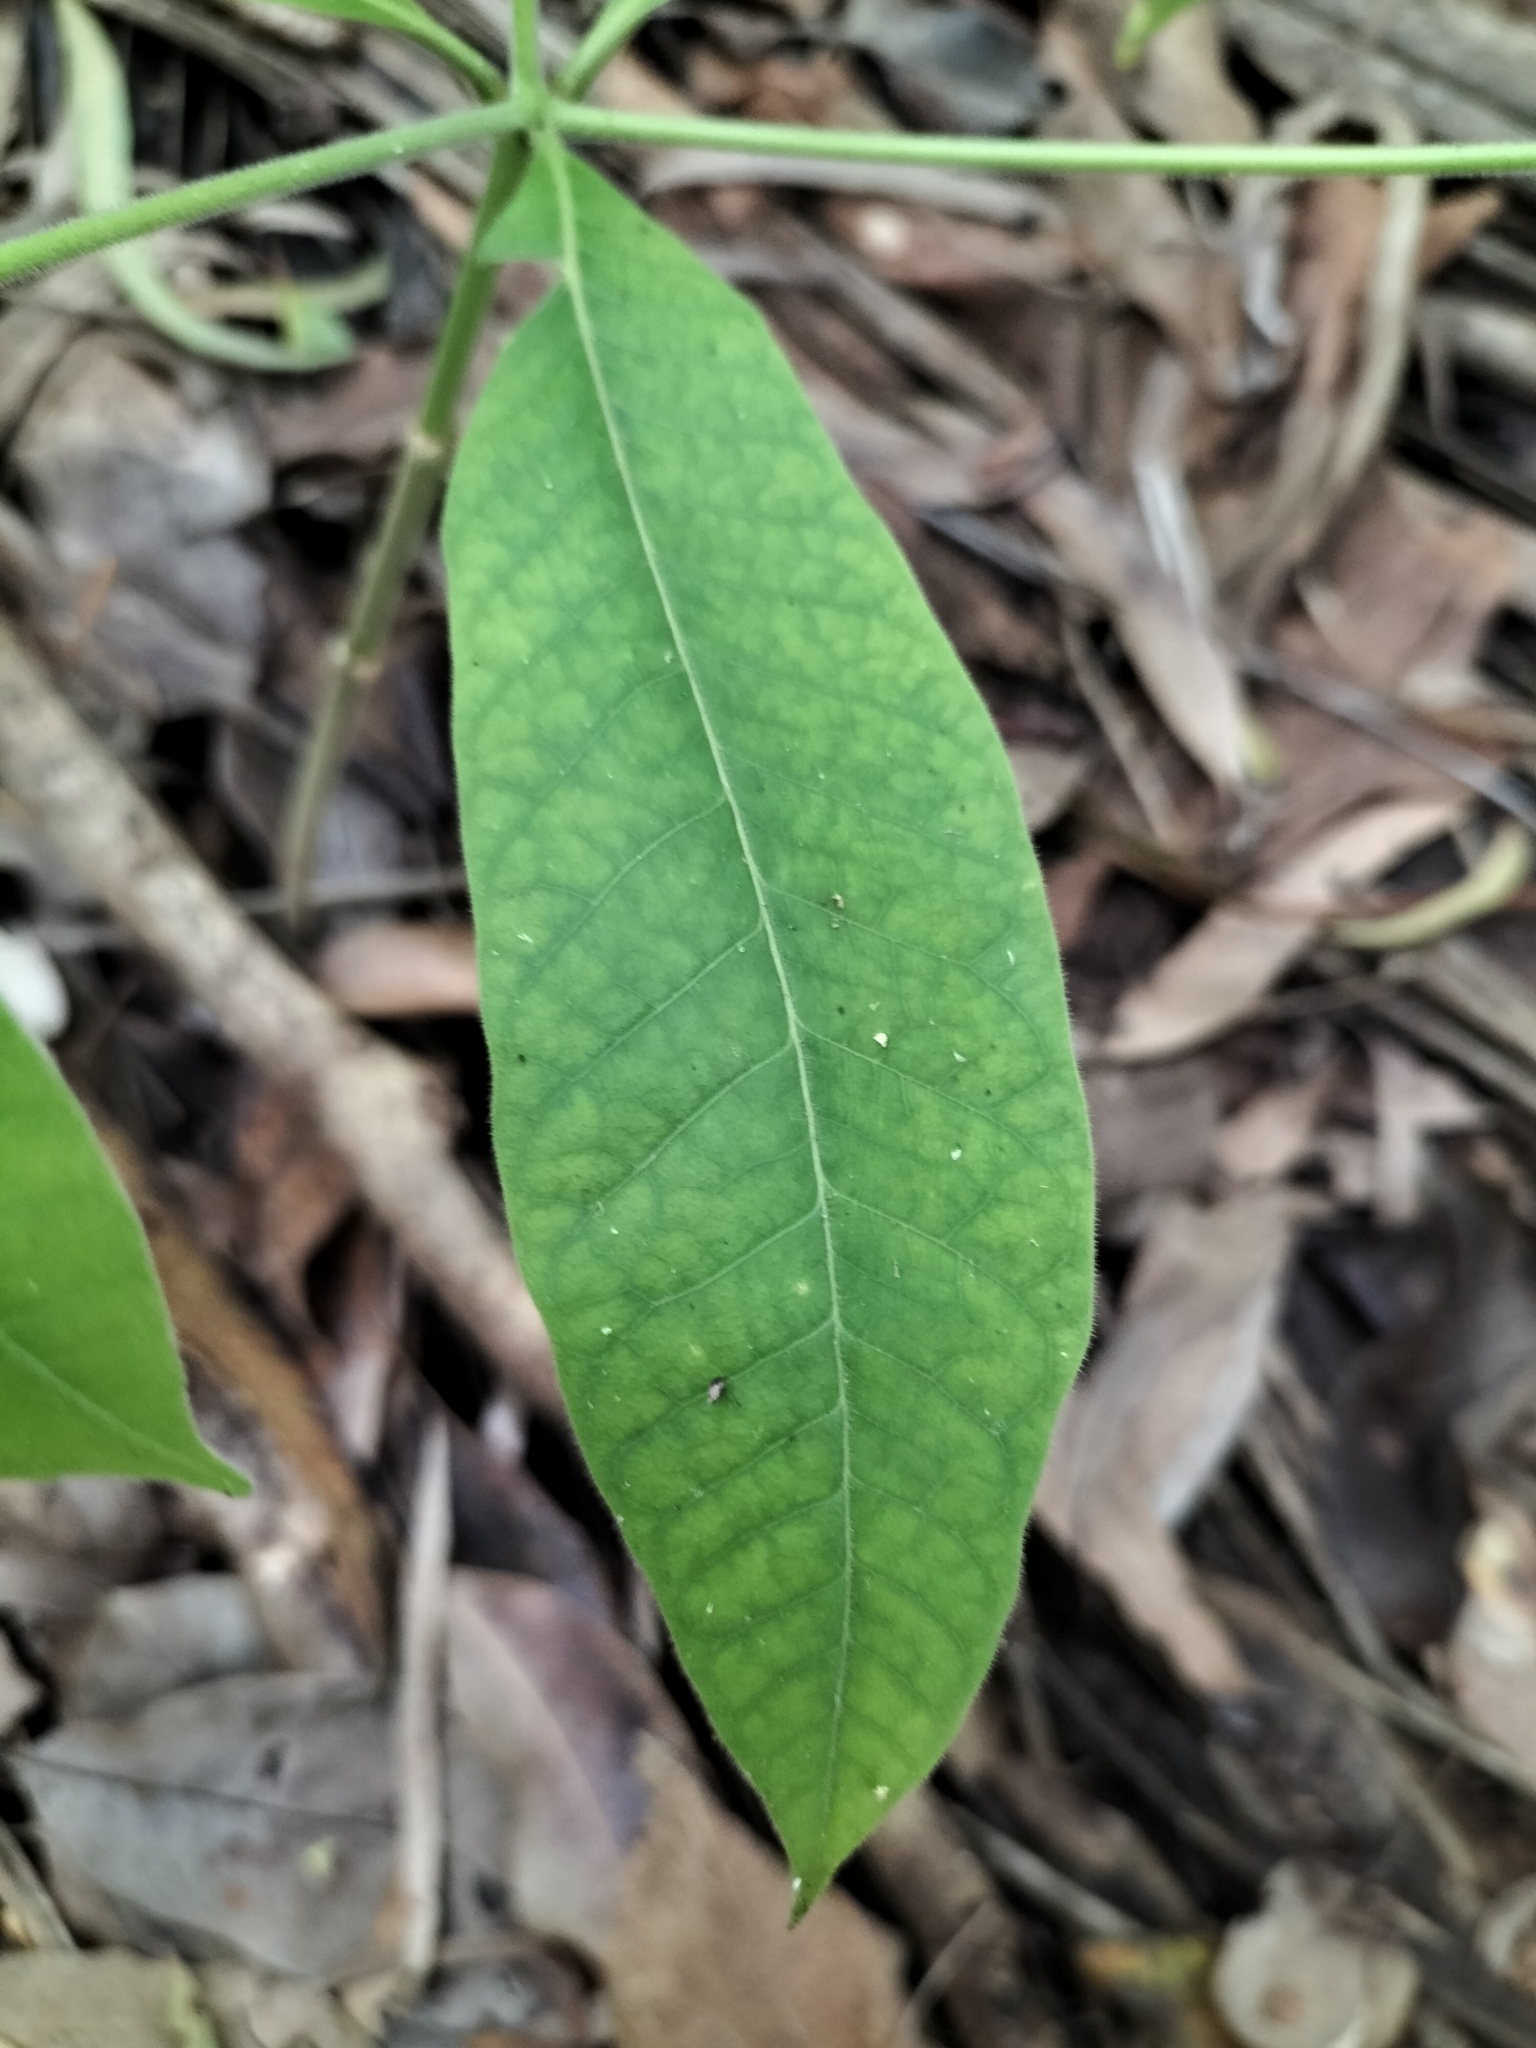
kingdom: Plantae
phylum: Tracheophyta
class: Magnoliopsida
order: Gentianales
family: Apocynaceae
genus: Alstonia
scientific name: Alstonia muelleriana
